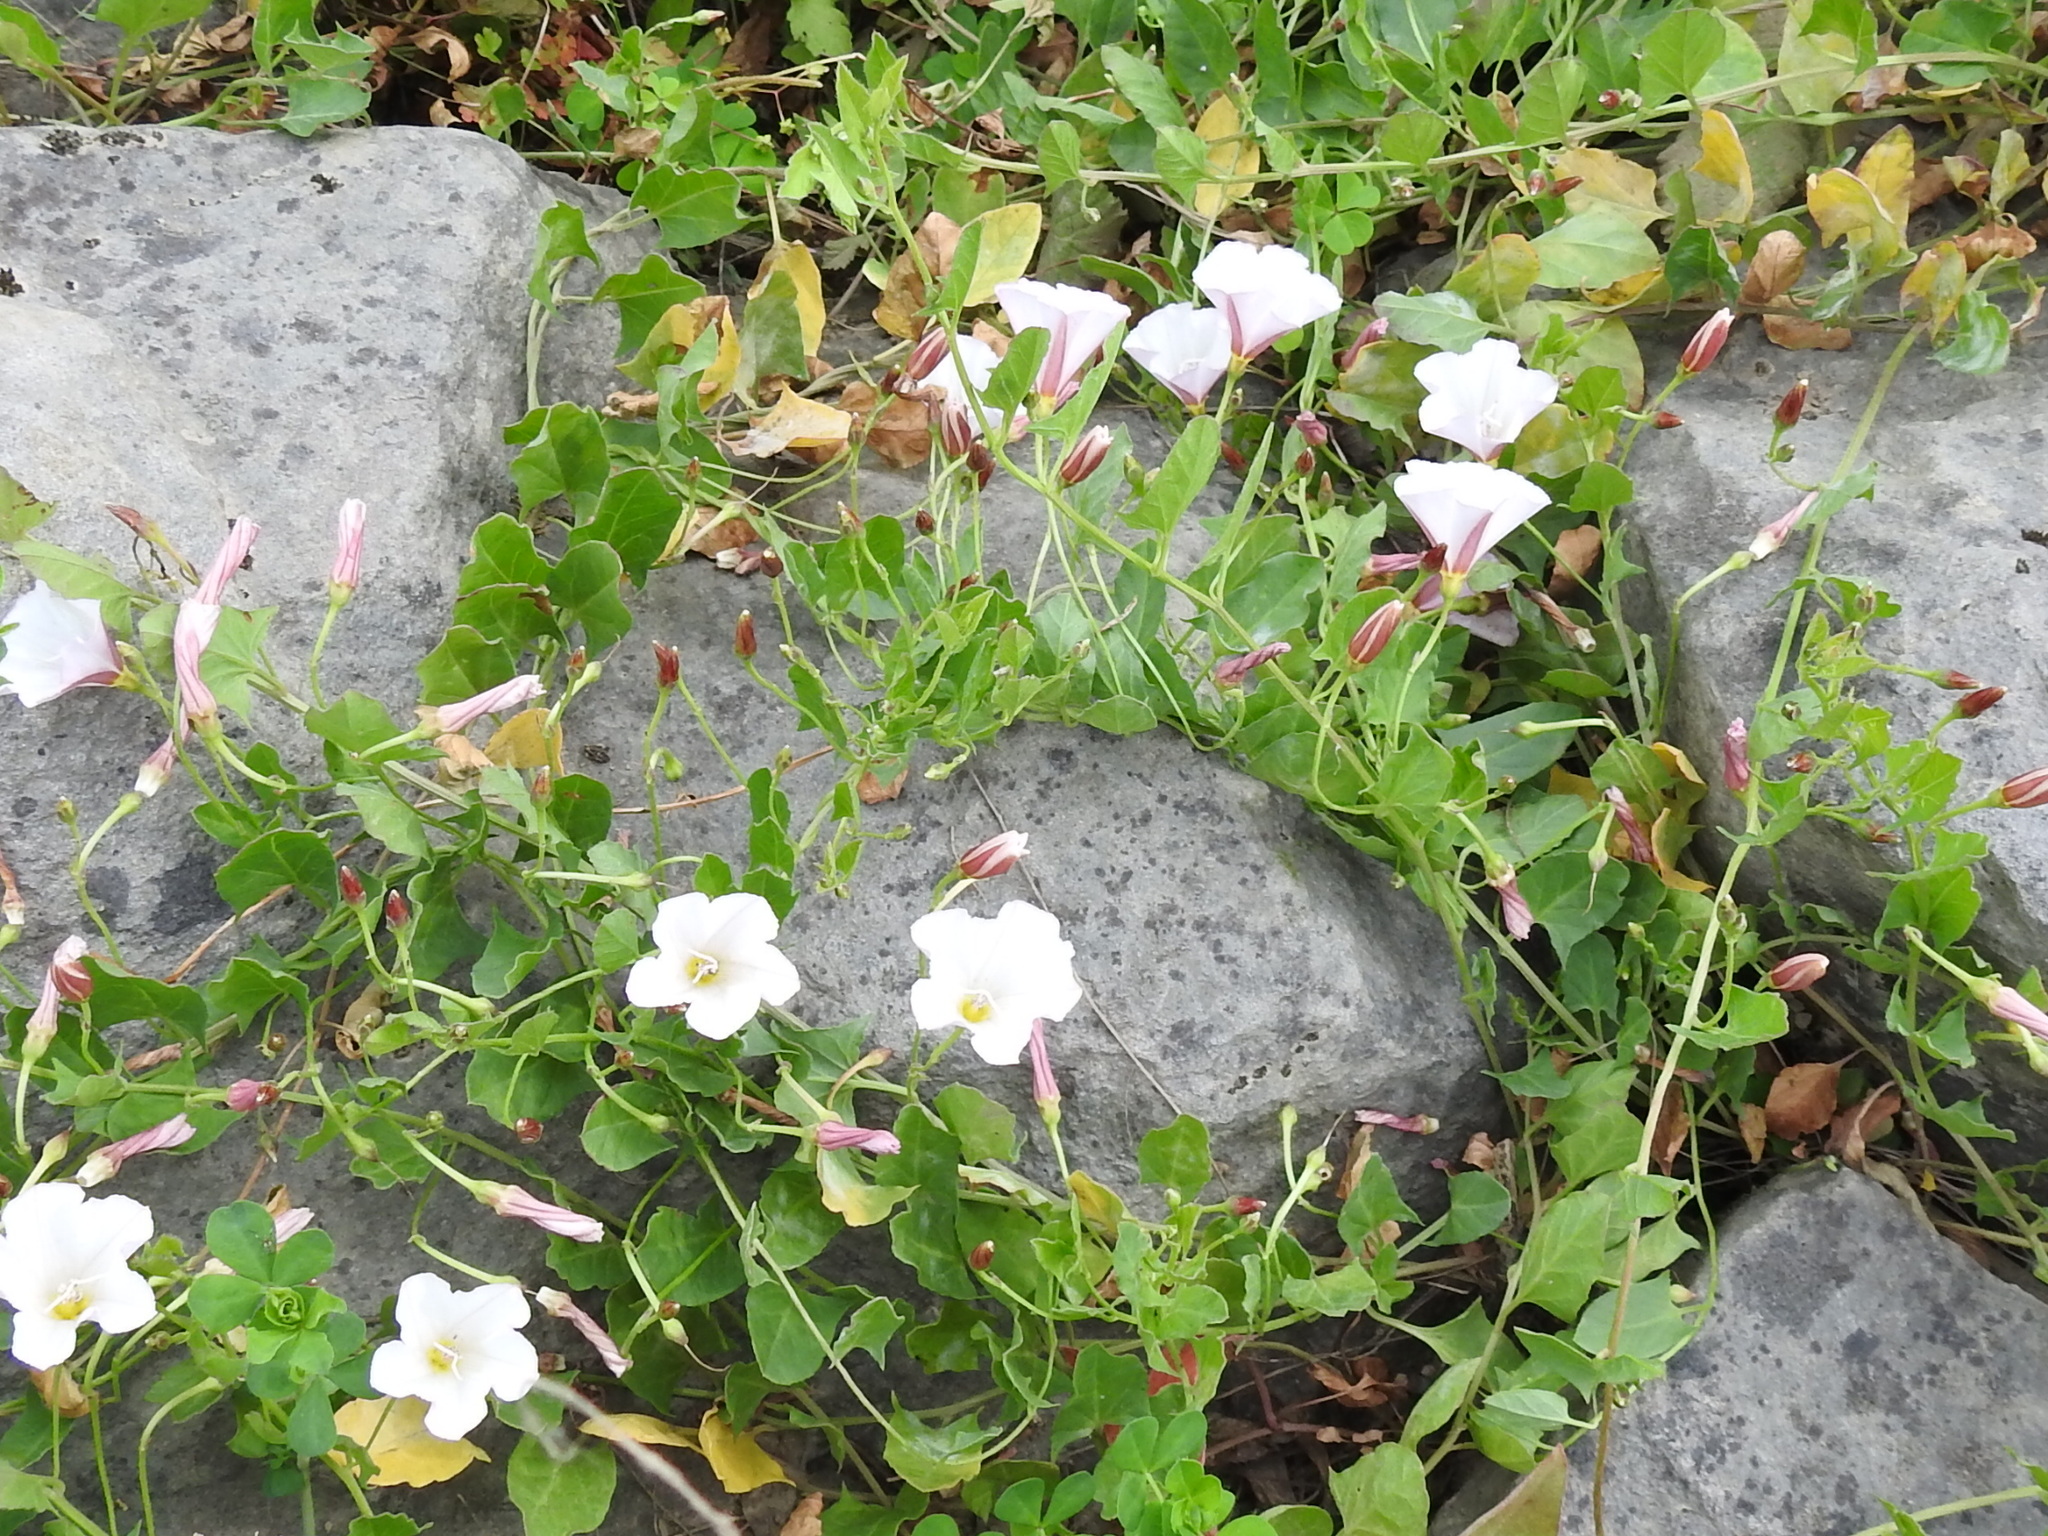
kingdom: Plantae
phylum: Tracheophyta
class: Magnoliopsida
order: Solanales
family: Convolvulaceae
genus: Convolvulus
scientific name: Convolvulus arvensis
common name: Field bindweed
